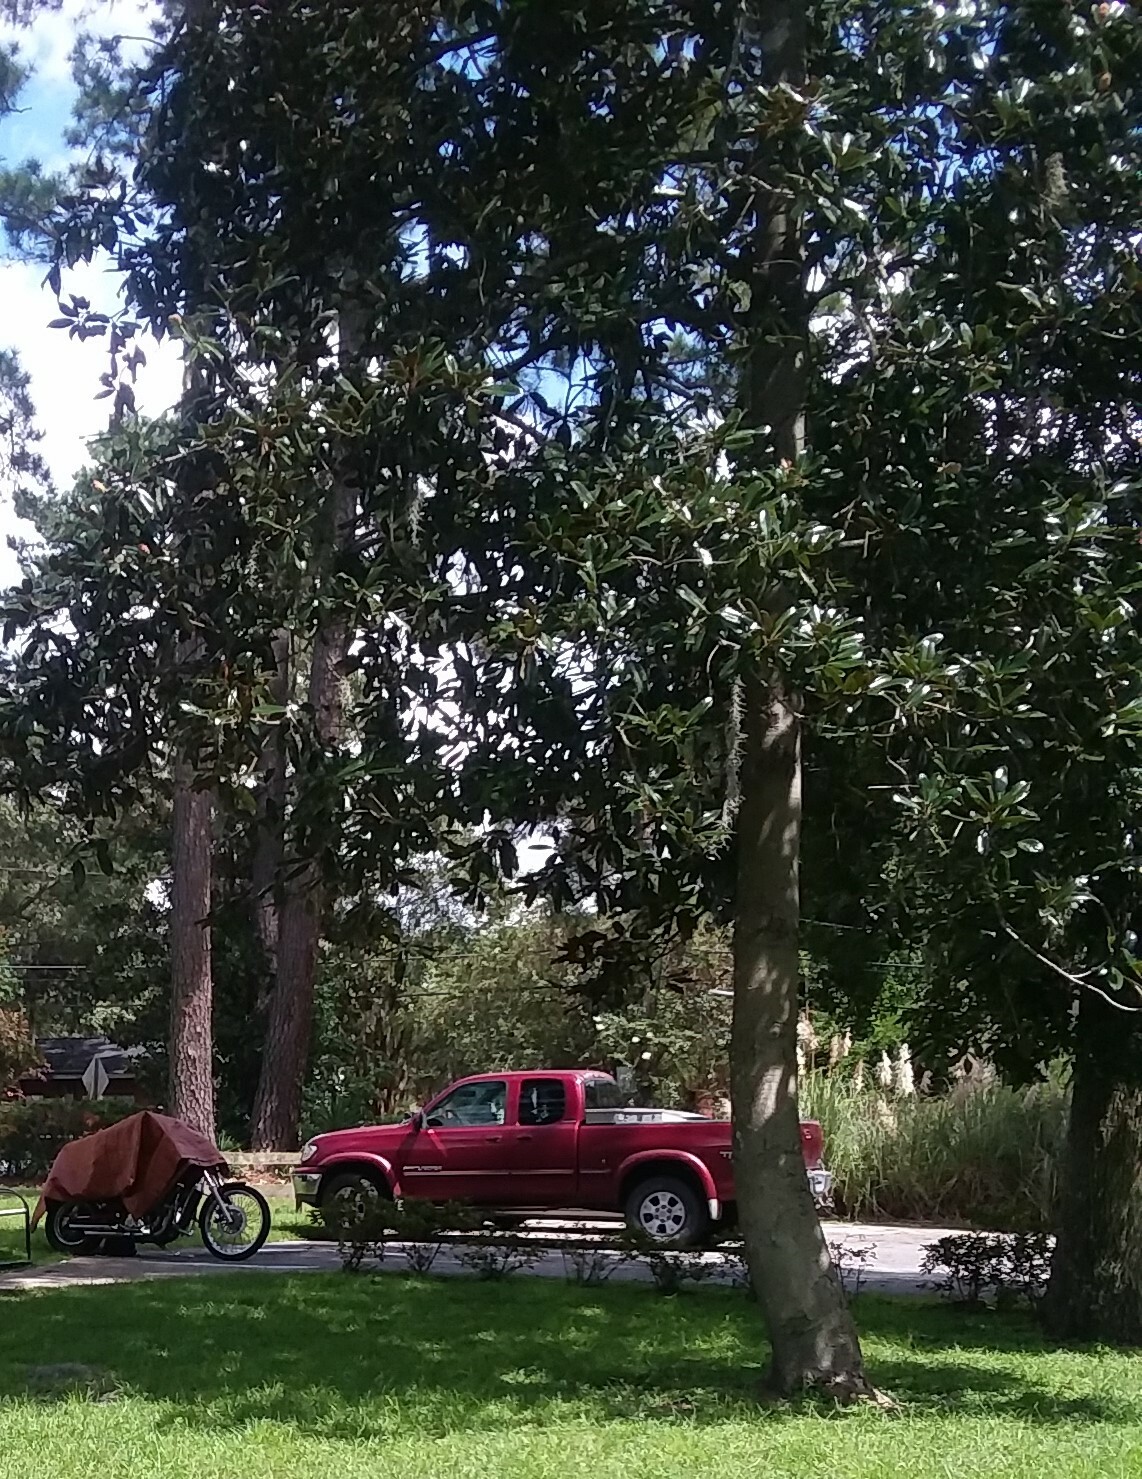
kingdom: Plantae
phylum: Tracheophyta
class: Magnoliopsida
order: Magnoliales
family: Magnoliaceae
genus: Magnolia
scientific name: Magnolia grandiflora
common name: Southern magnolia
